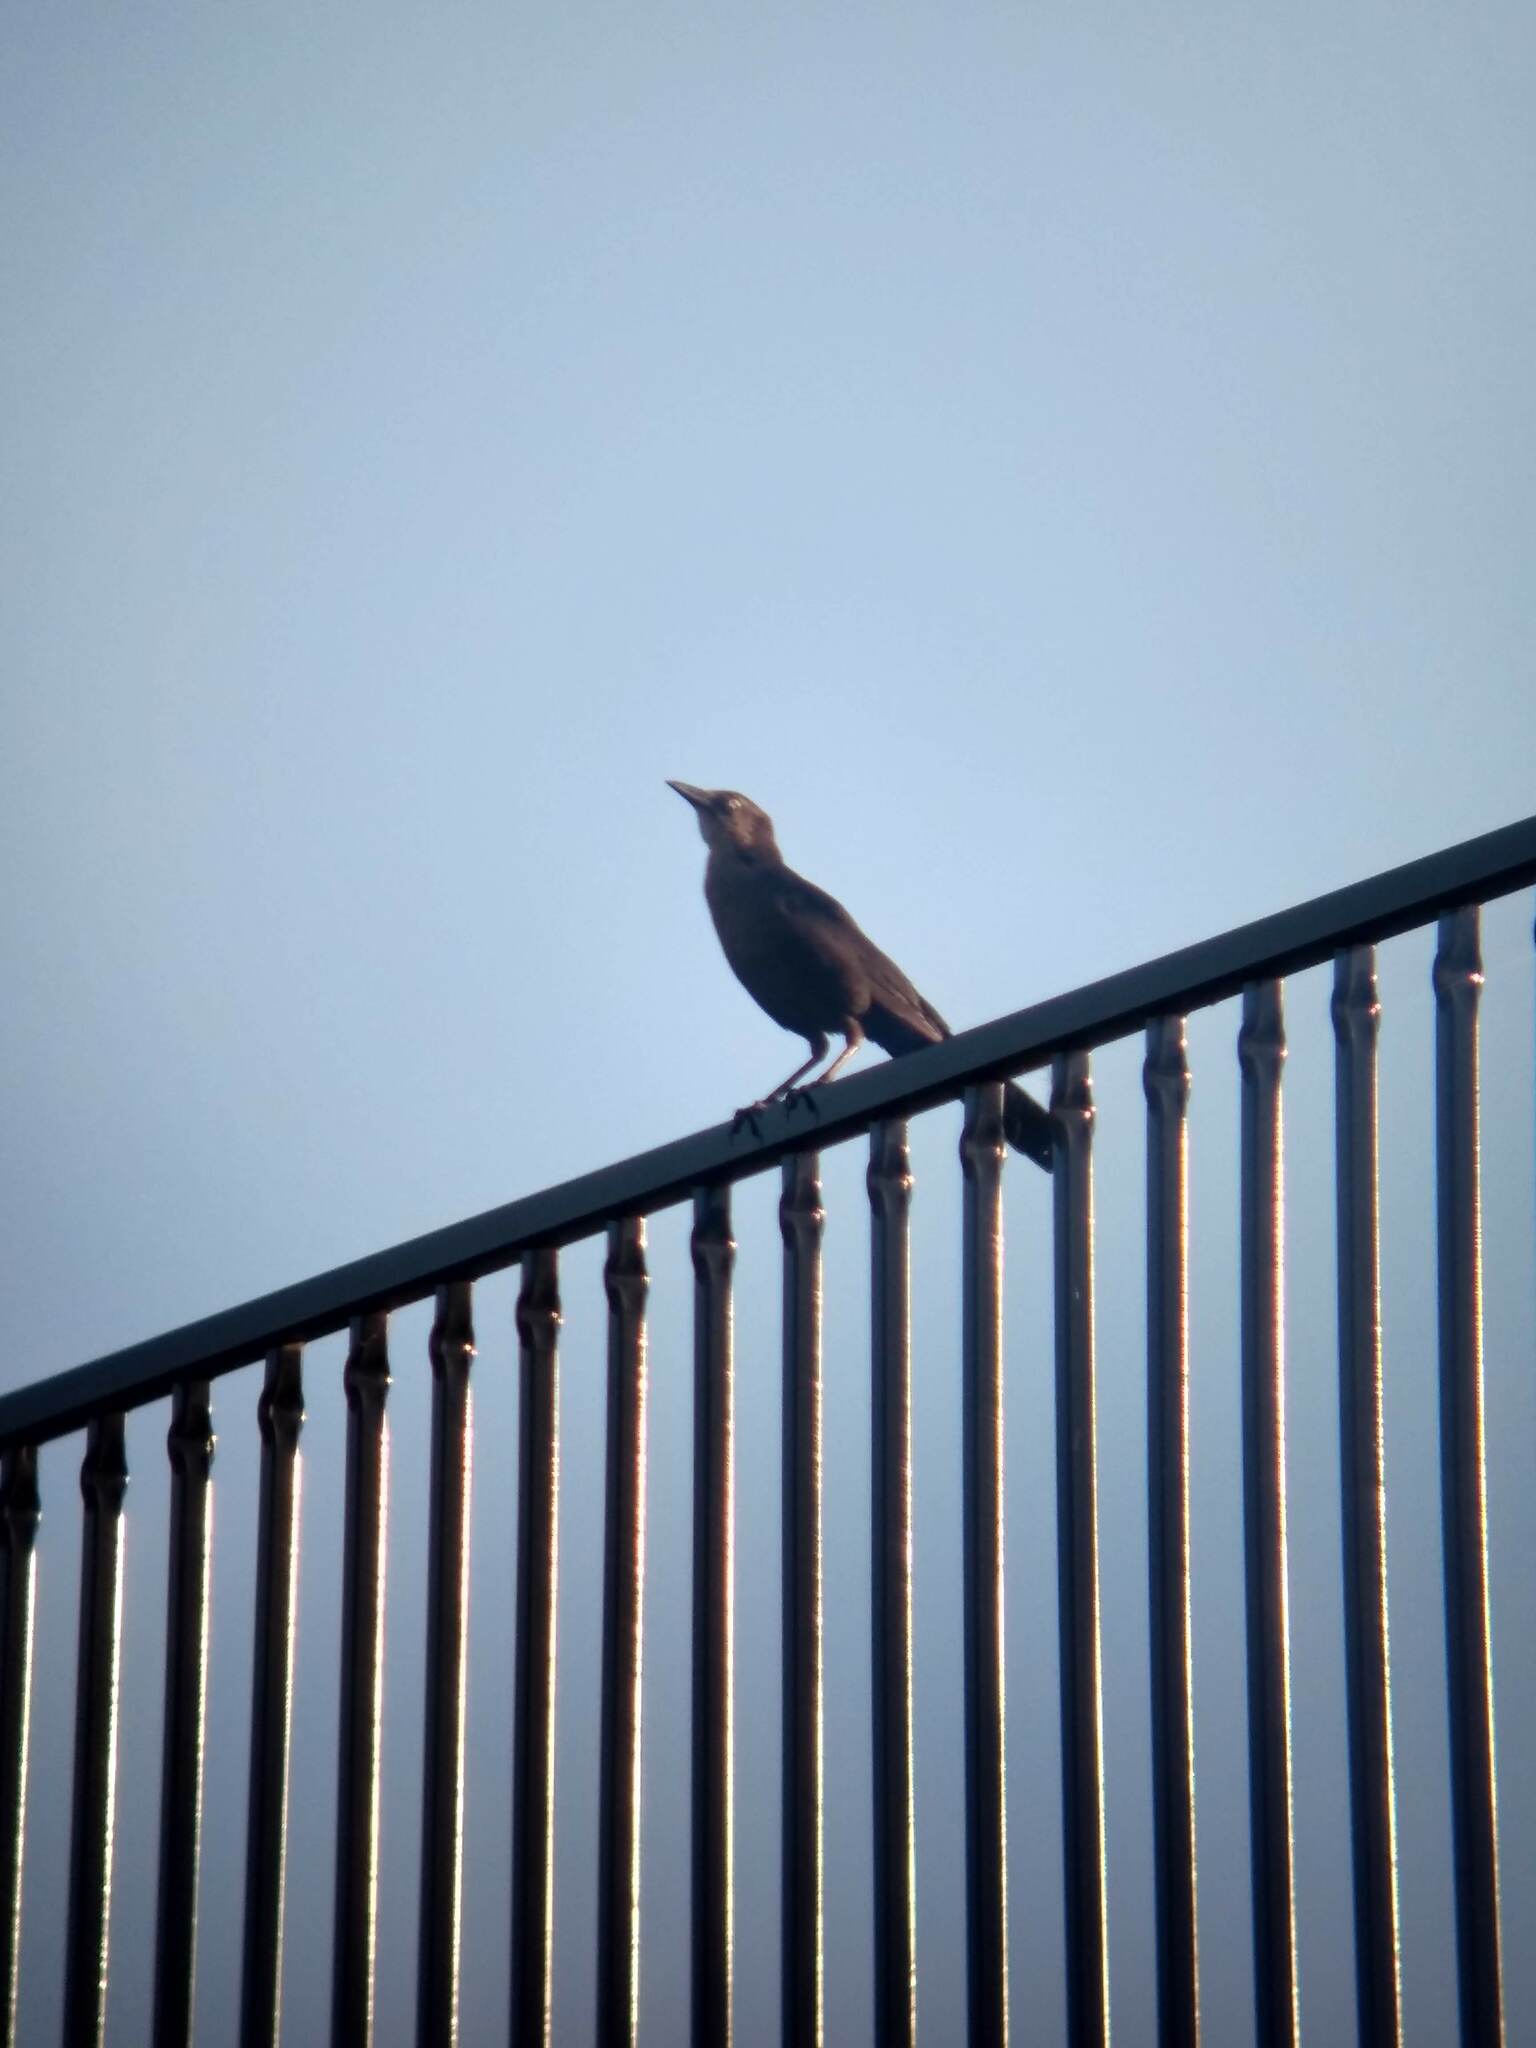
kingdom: Animalia
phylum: Chordata
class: Aves
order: Passeriformes
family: Icteridae
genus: Quiscalus
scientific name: Quiscalus mexicanus
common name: Great-tailed grackle
